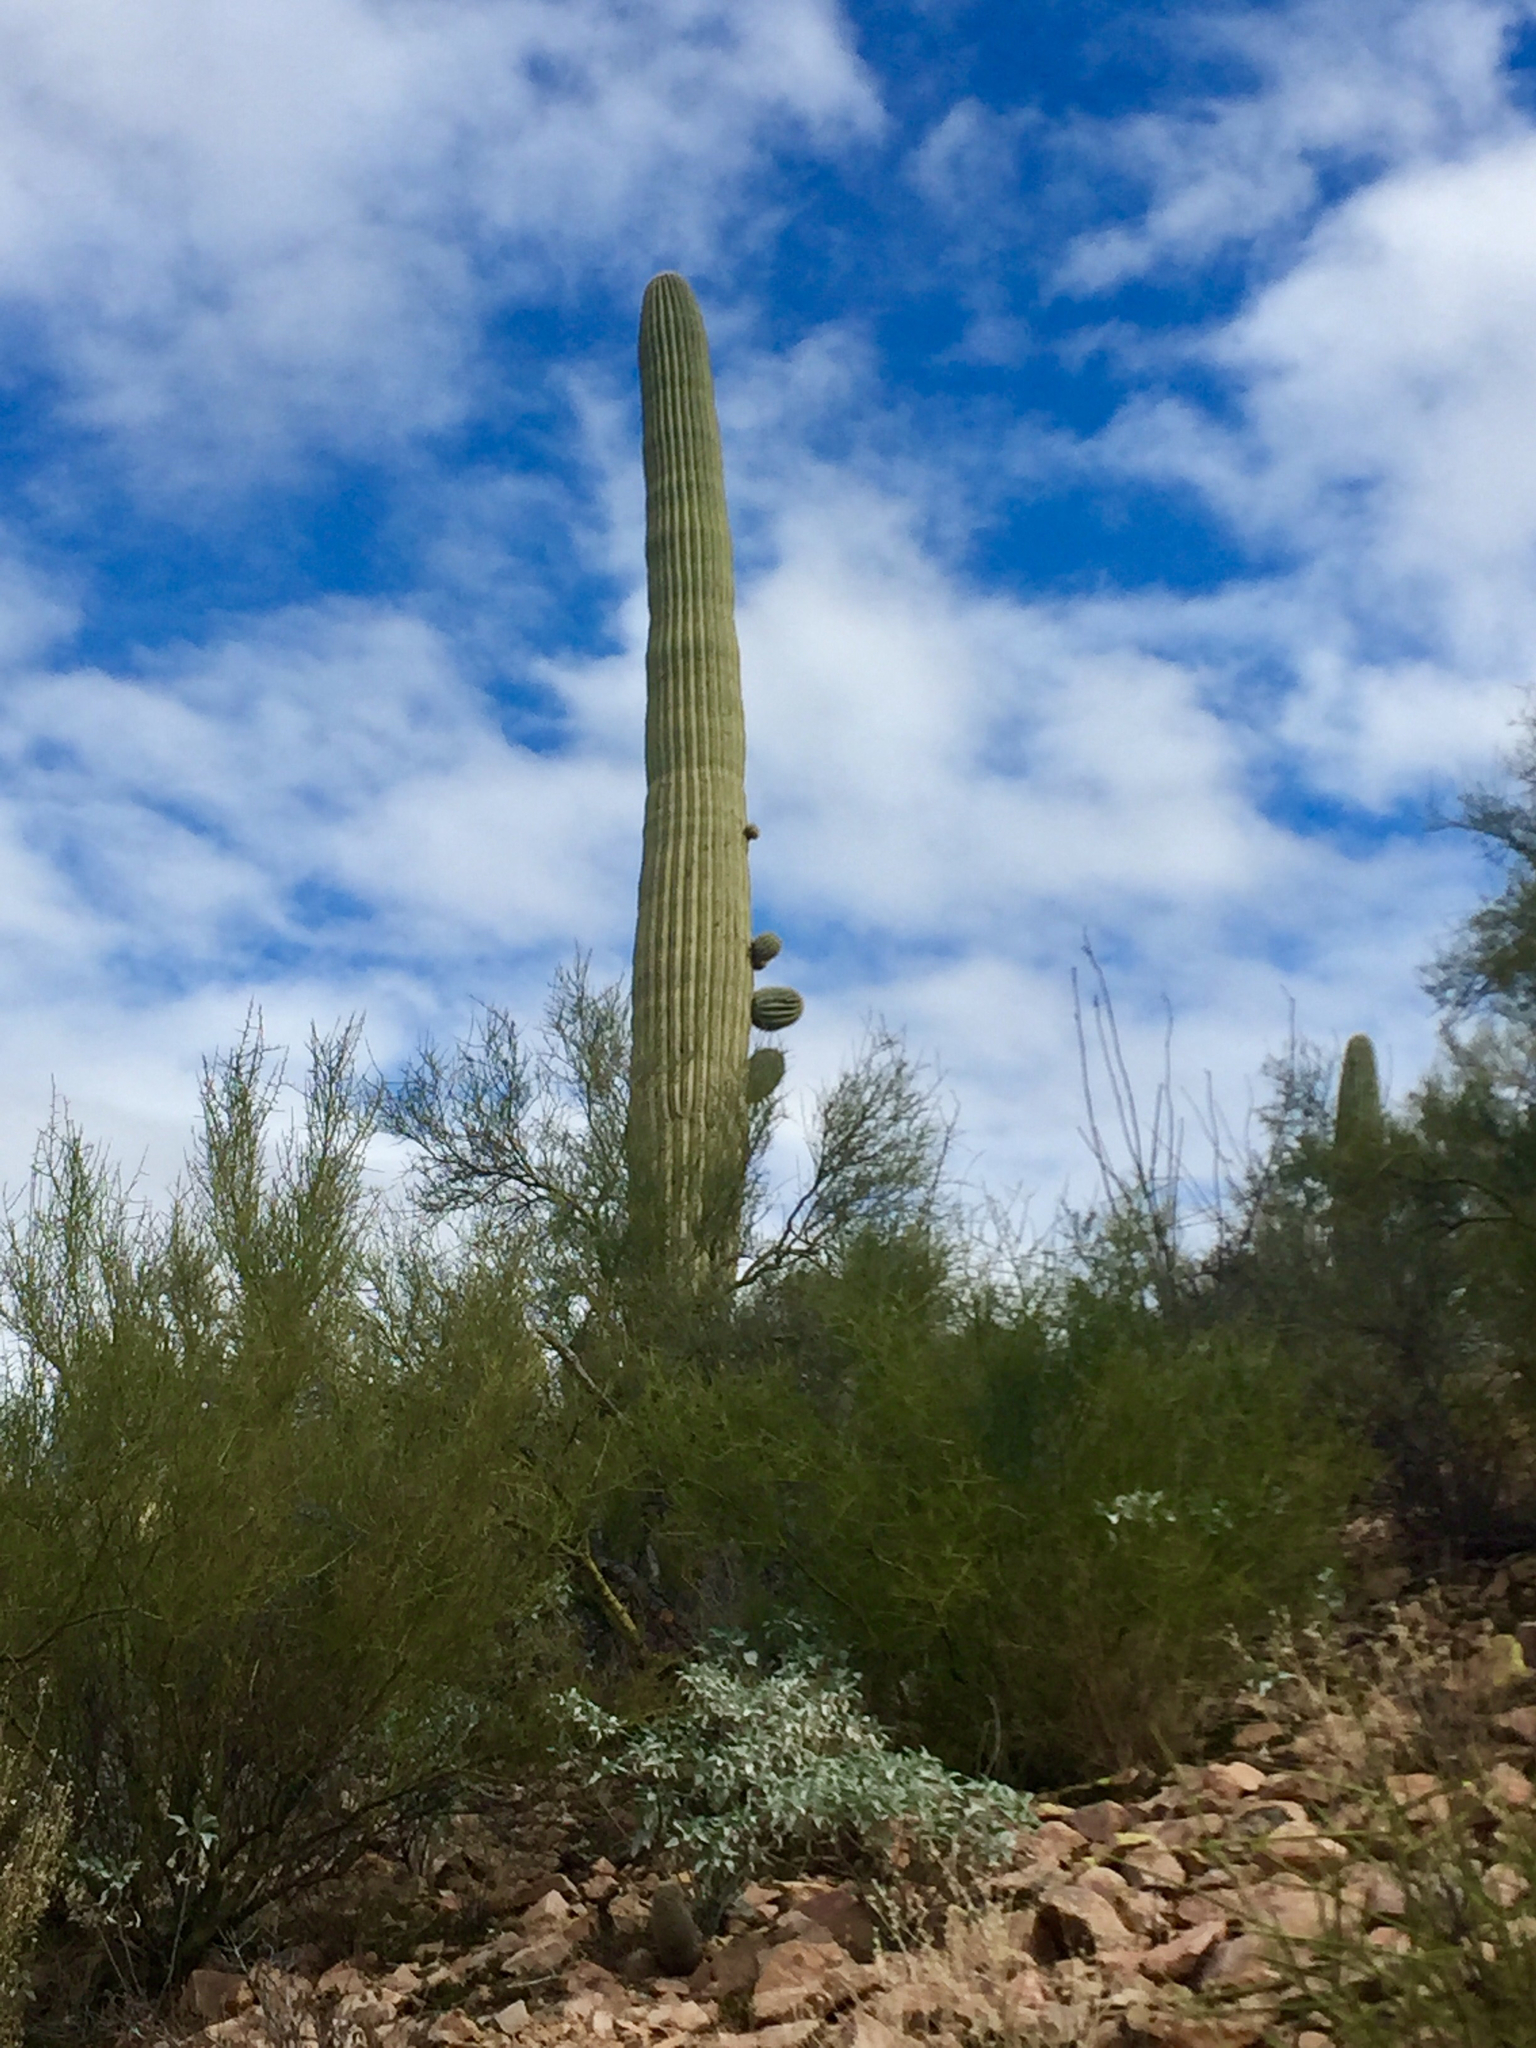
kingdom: Plantae
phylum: Tracheophyta
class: Magnoliopsida
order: Caryophyllales
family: Cactaceae
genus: Carnegiea
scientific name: Carnegiea gigantea
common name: Saguaro
